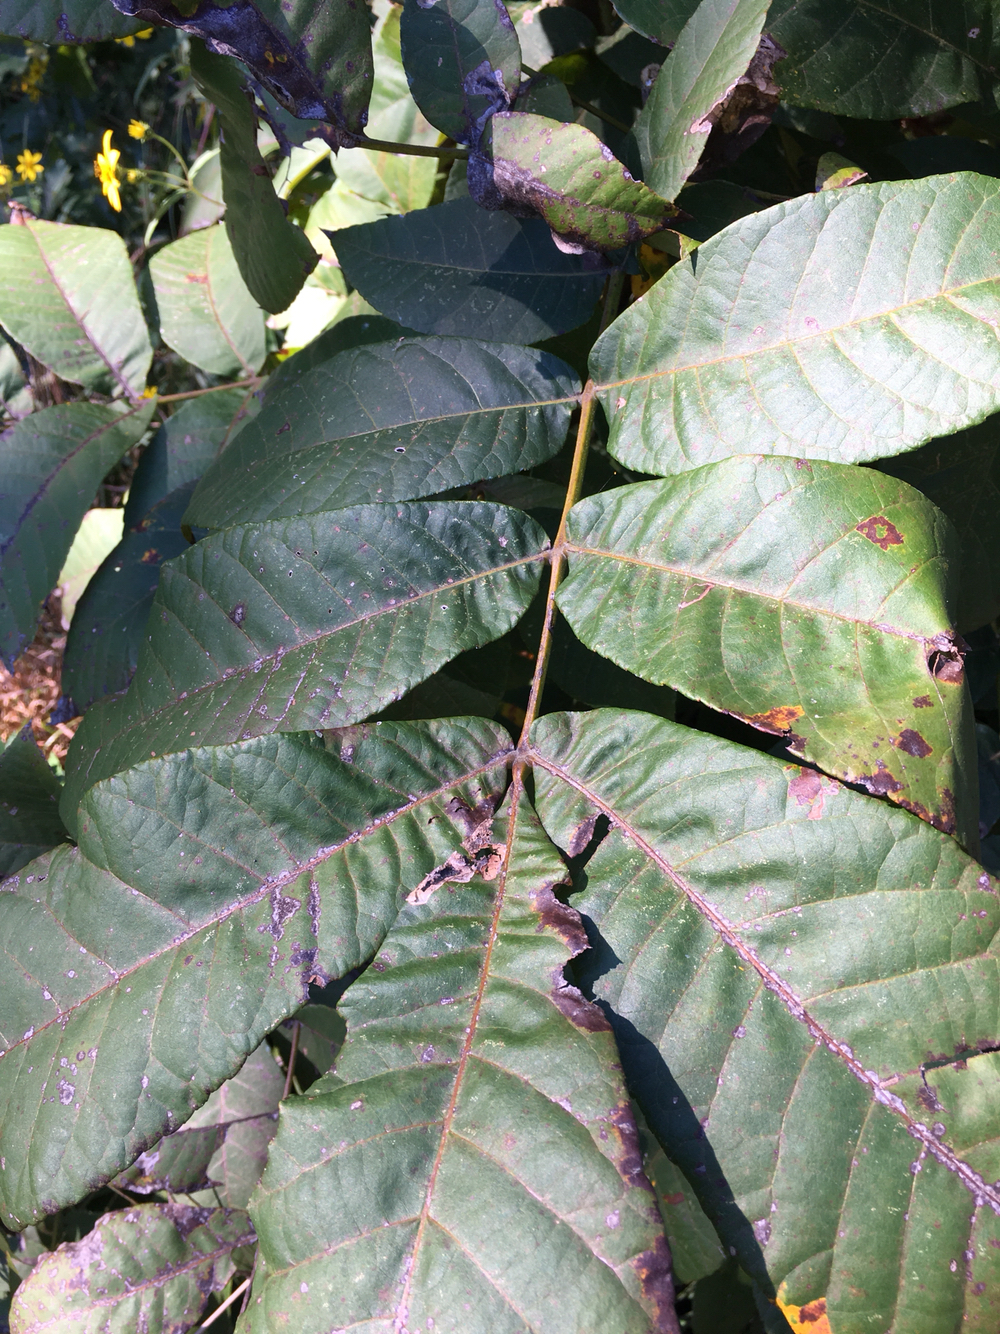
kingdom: Plantae
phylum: Tracheophyta
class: Magnoliopsida
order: Fagales
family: Juglandaceae
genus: Carya
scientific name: Carya alba
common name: Mockernut hickory
